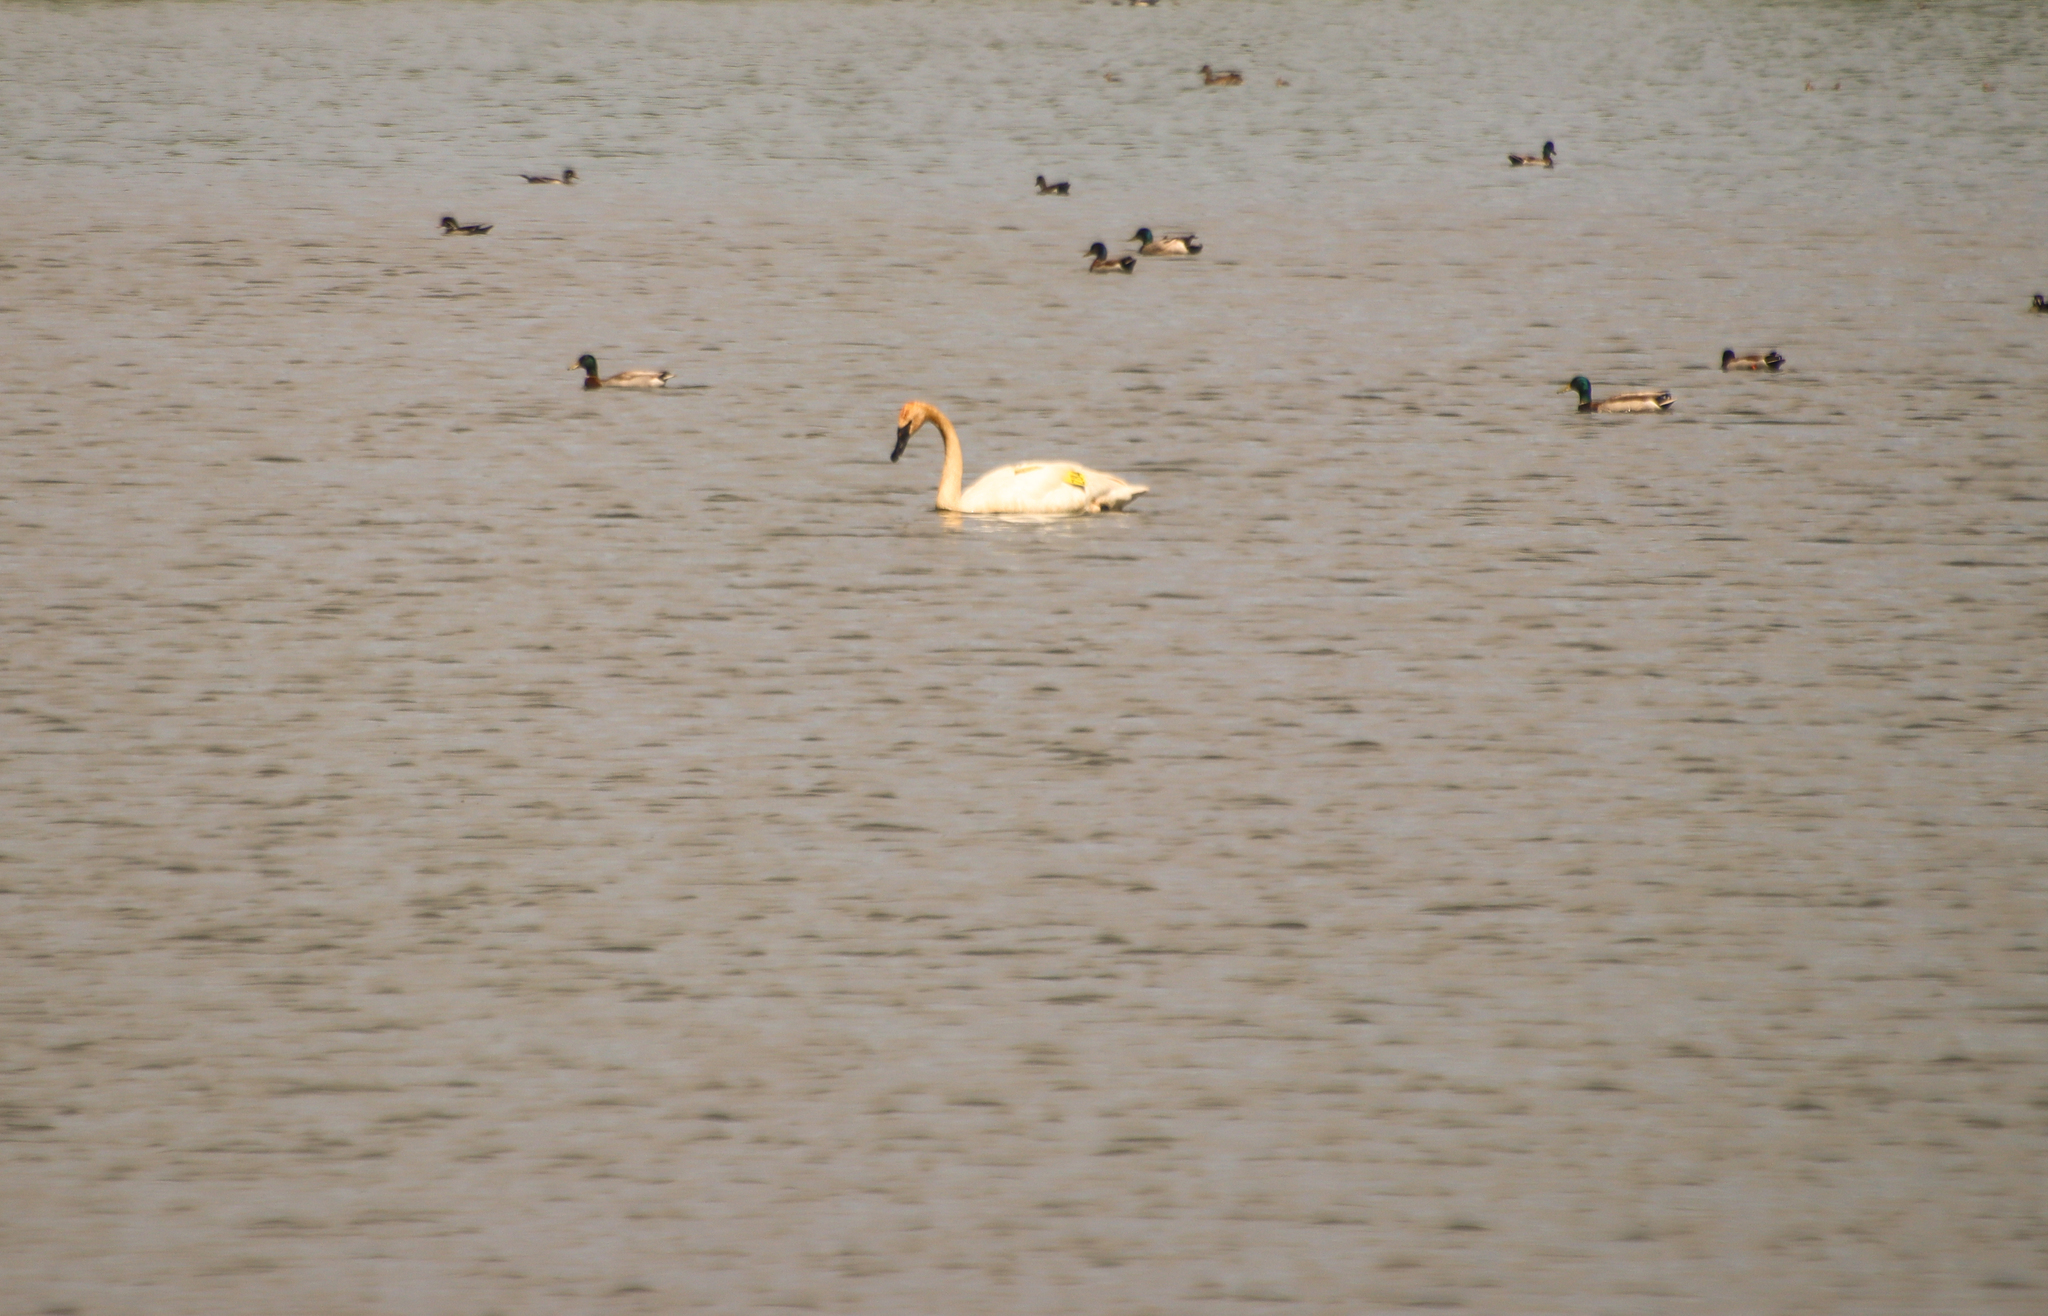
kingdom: Animalia
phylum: Chordata
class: Aves
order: Anseriformes
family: Anatidae
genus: Cygnus
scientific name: Cygnus buccinator
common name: Trumpeter swan
